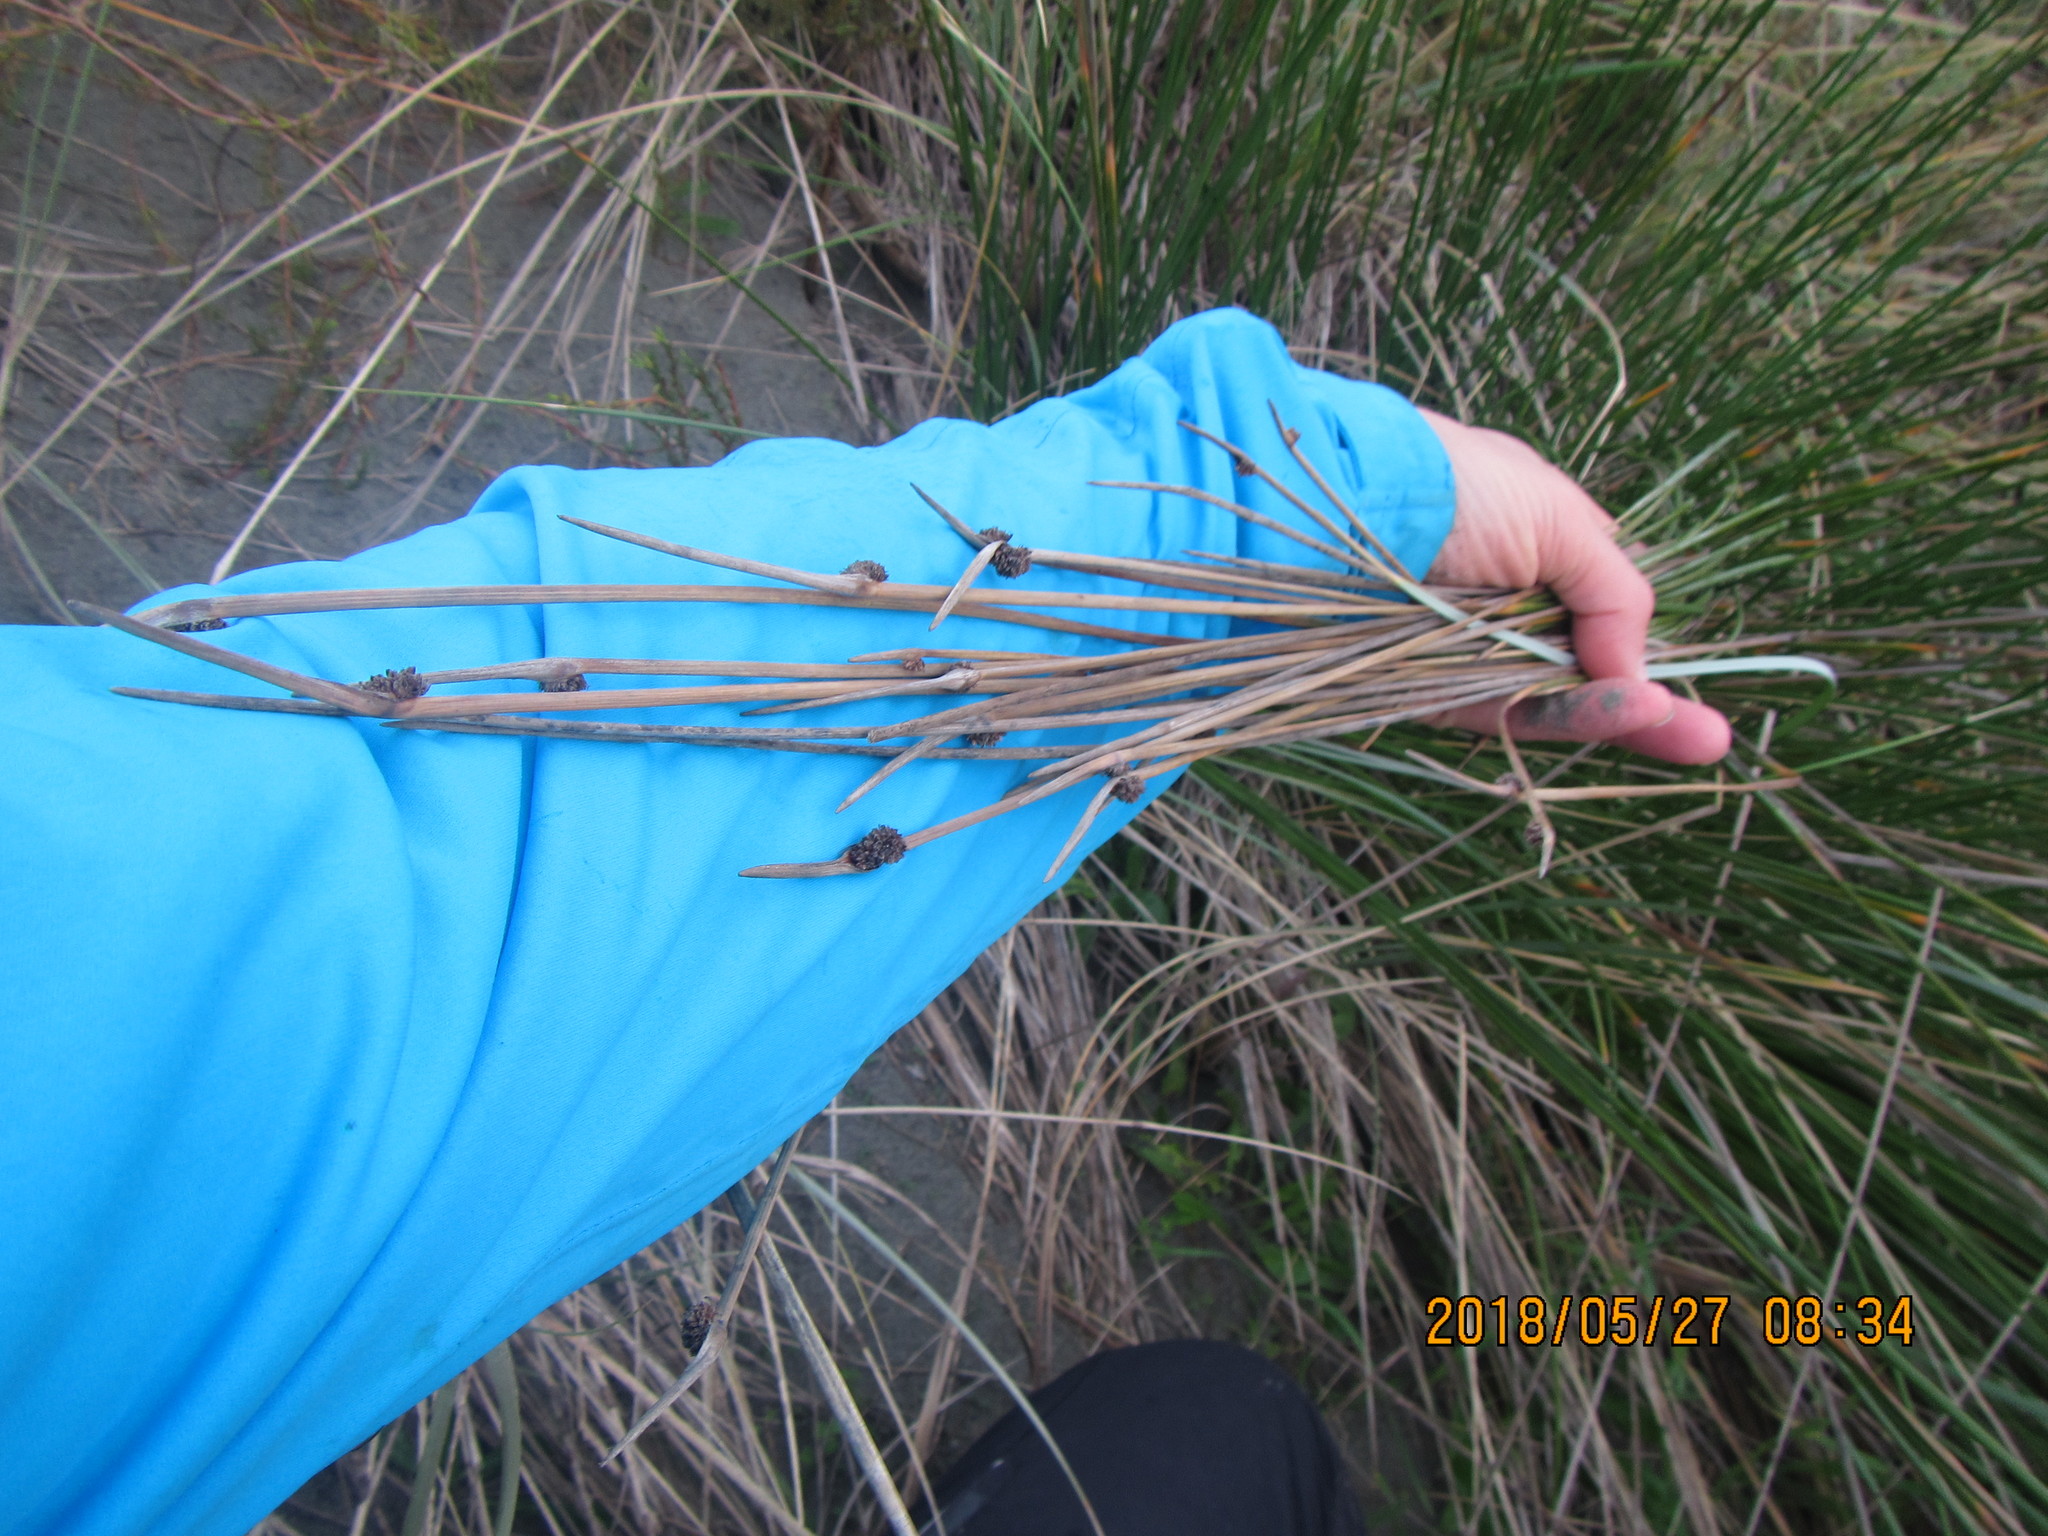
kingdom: Plantae
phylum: Tracheophyta
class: Liliopsida
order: Poales
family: Cyperaceae
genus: Ficinia
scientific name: Ficinia nodosa
